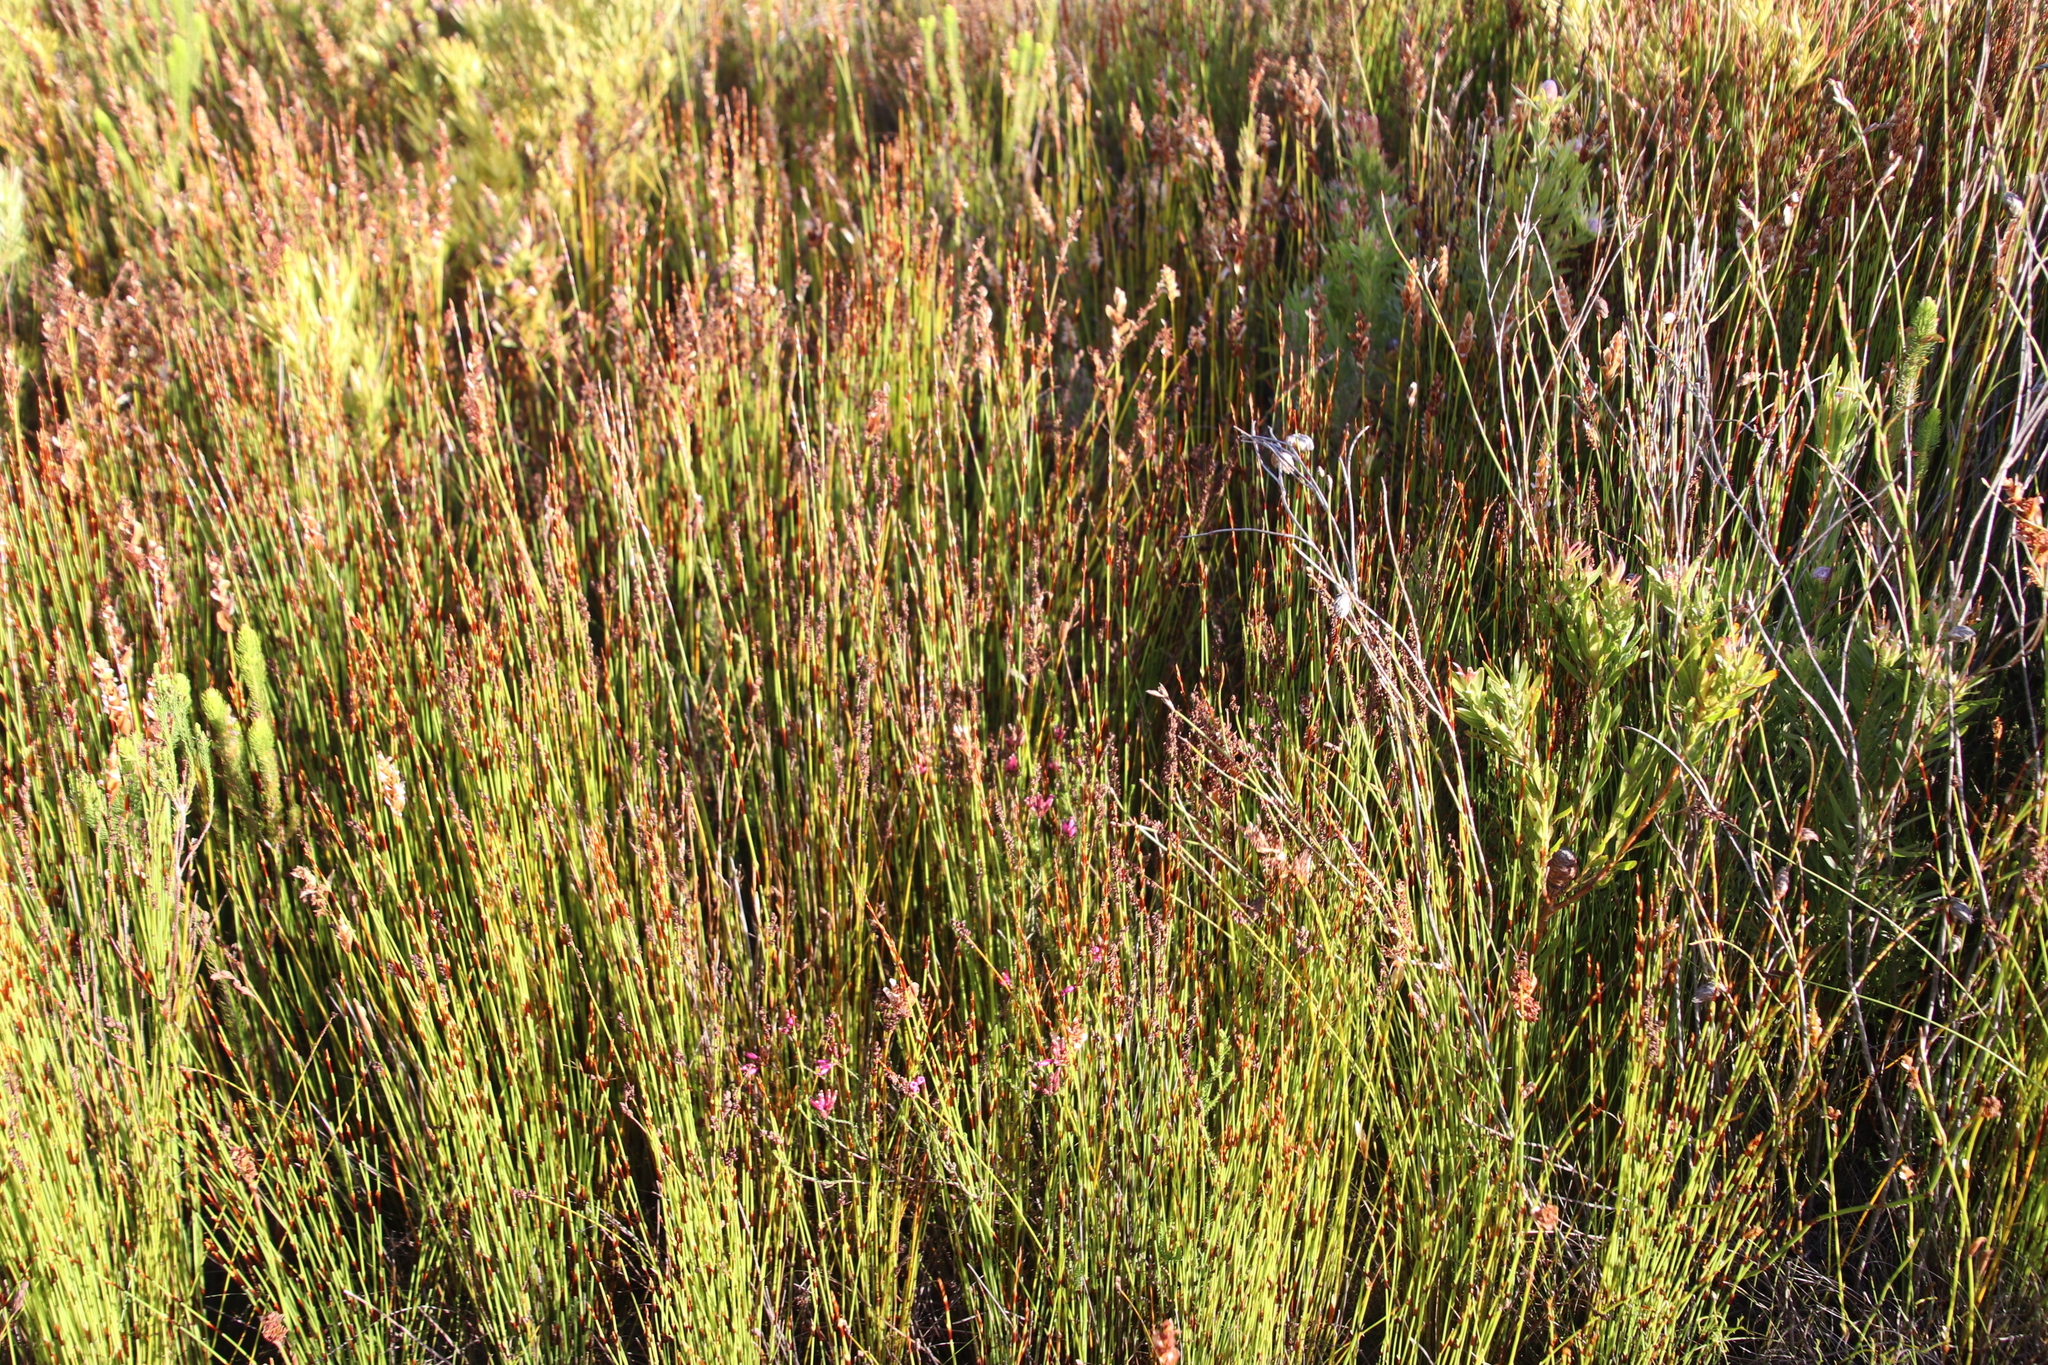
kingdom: Plantae
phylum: Tracheophyta
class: Magnoliopsida
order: Ericales
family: Ericaceae
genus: Erica
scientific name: Erica cristata
